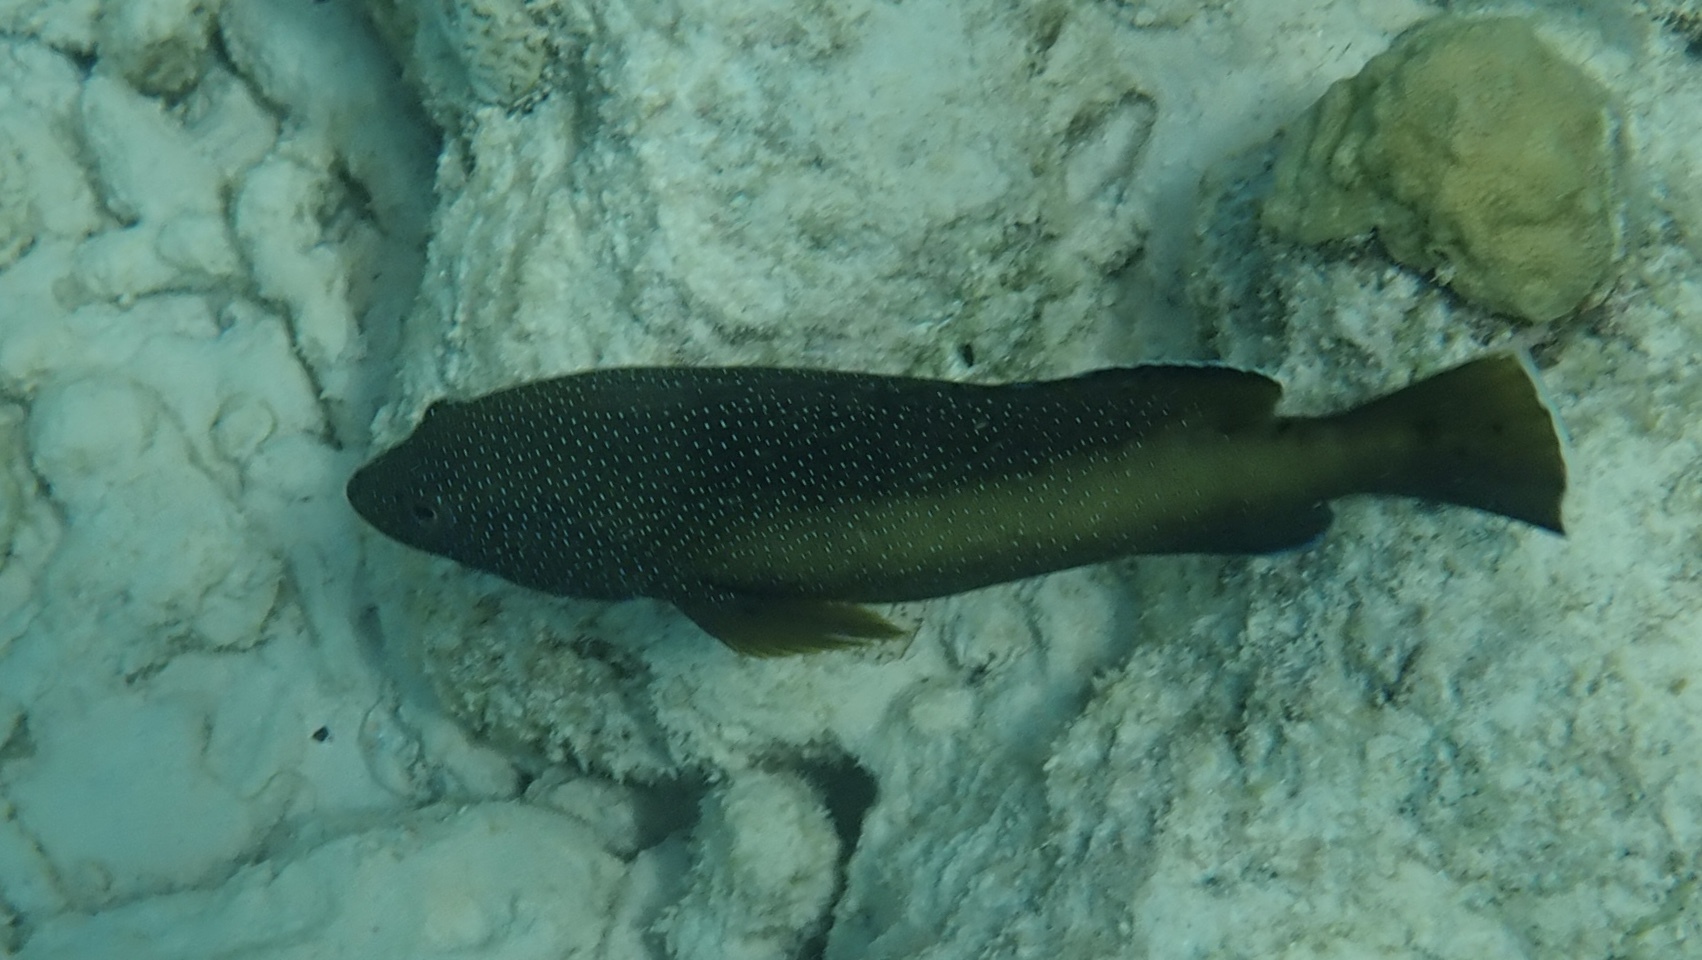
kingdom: Animalia
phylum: Chordata
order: Perciformes
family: Serranidae
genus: Cephalopholis
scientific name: Cephalopholis fulva
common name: Butterfish
